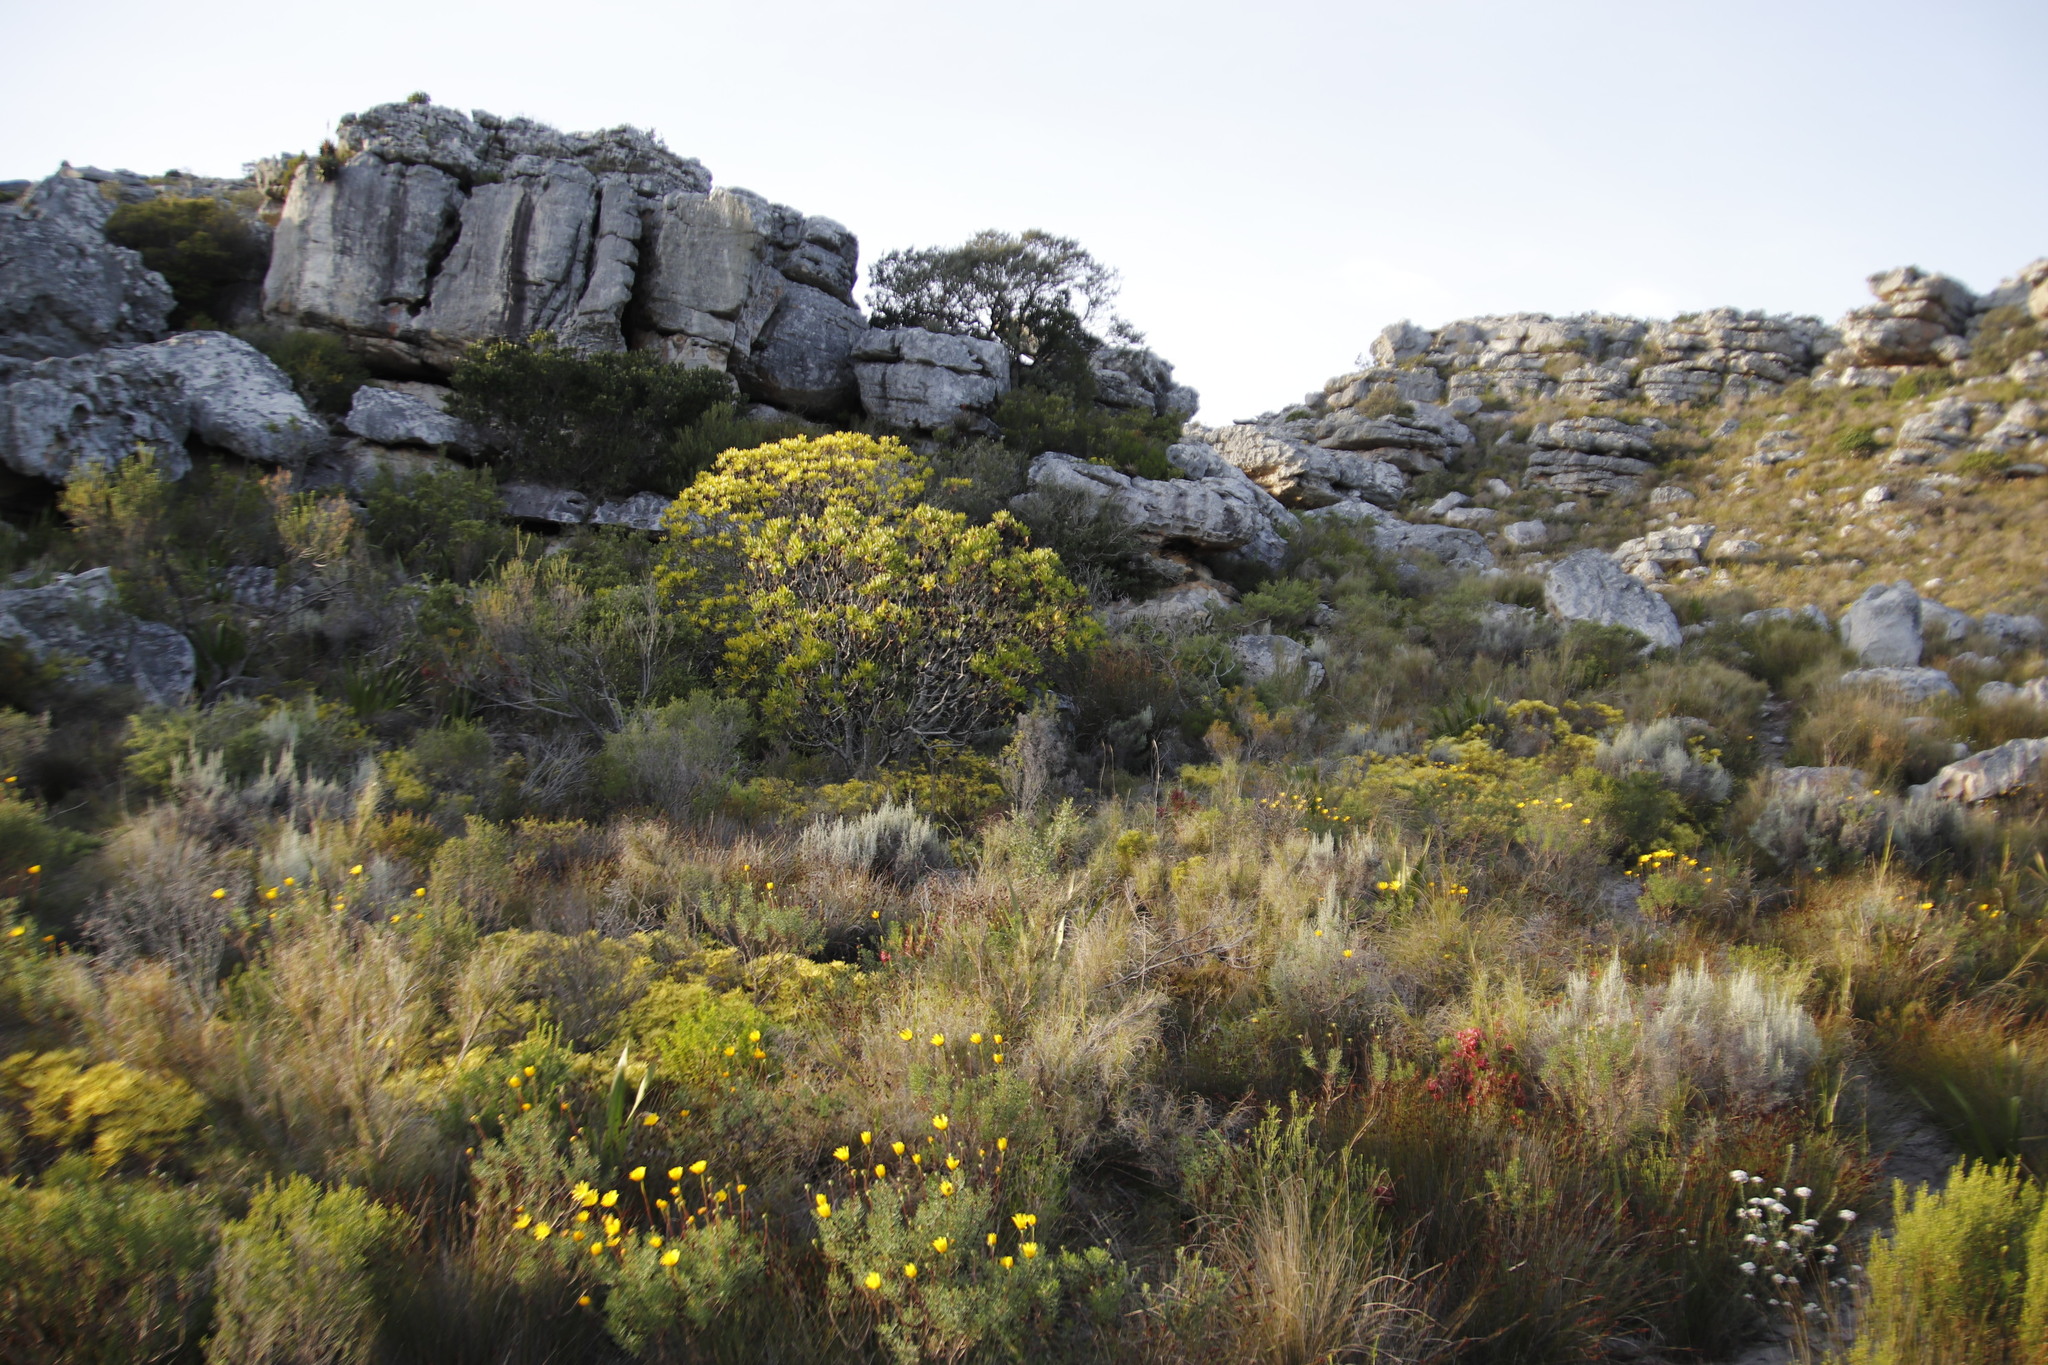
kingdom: Plantae
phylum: Tracheophyta
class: Magnoliopsida
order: Proteales
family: Proteaceae
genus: Leucadendron
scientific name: Leucadendron salignum
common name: Common sunshine conebush
